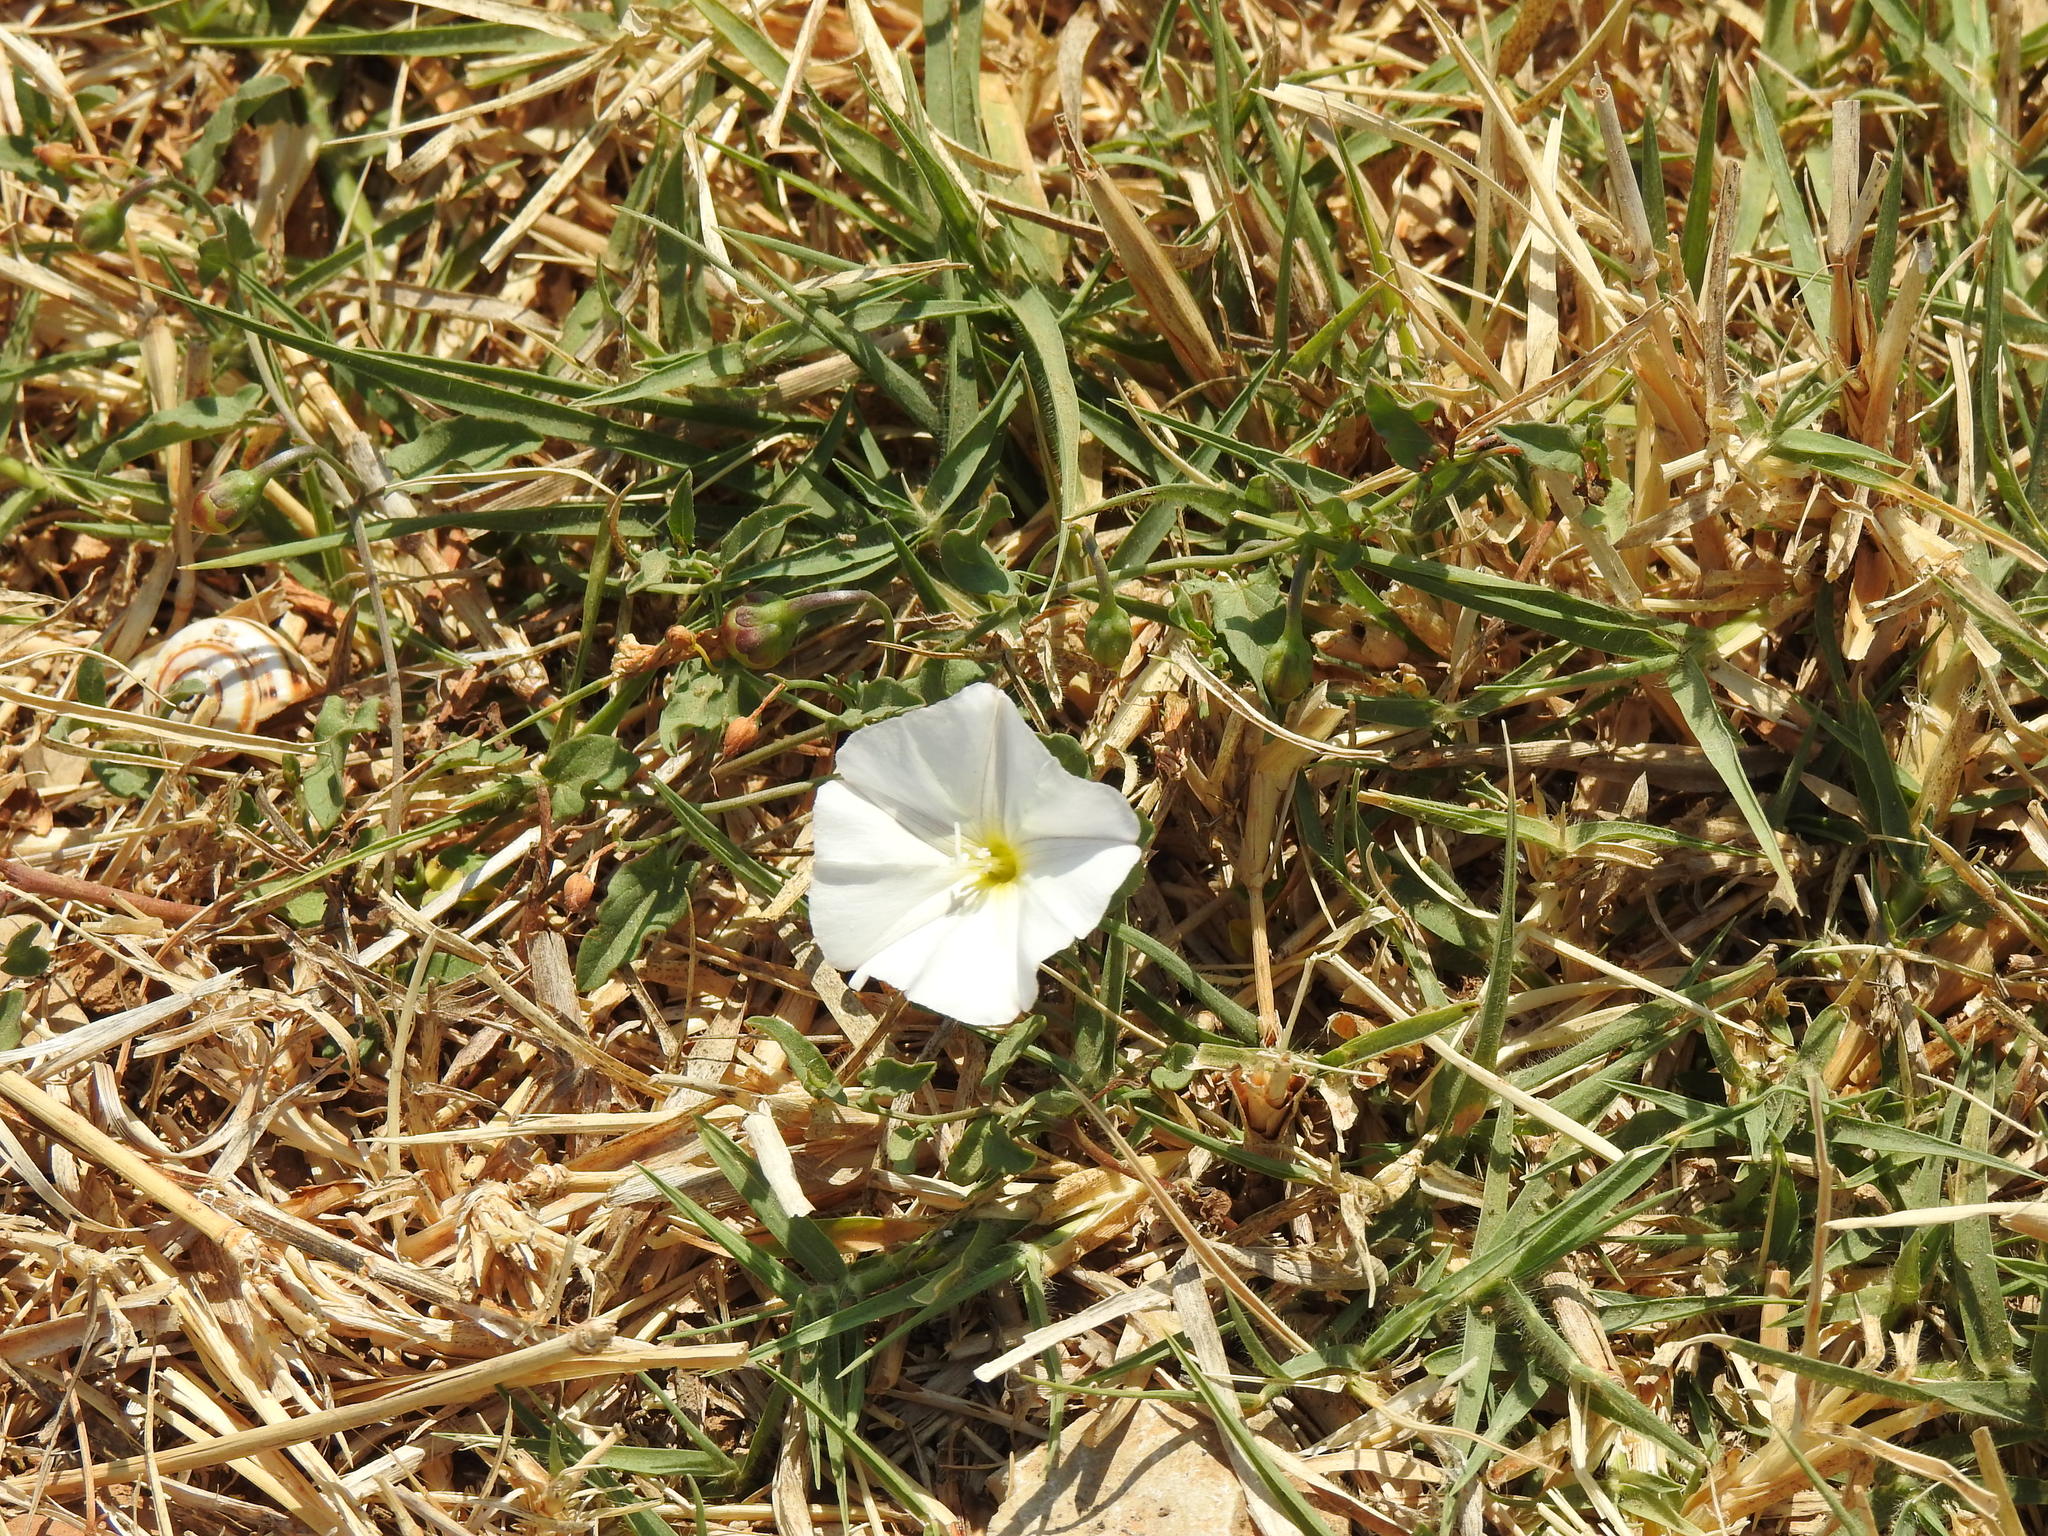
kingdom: Plantae
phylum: Tracheophyta
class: Magnoliopsida
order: Solanales
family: Convolvulaceae
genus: Convolvulus
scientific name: Convolvulus arvensis
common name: Field bindweed
